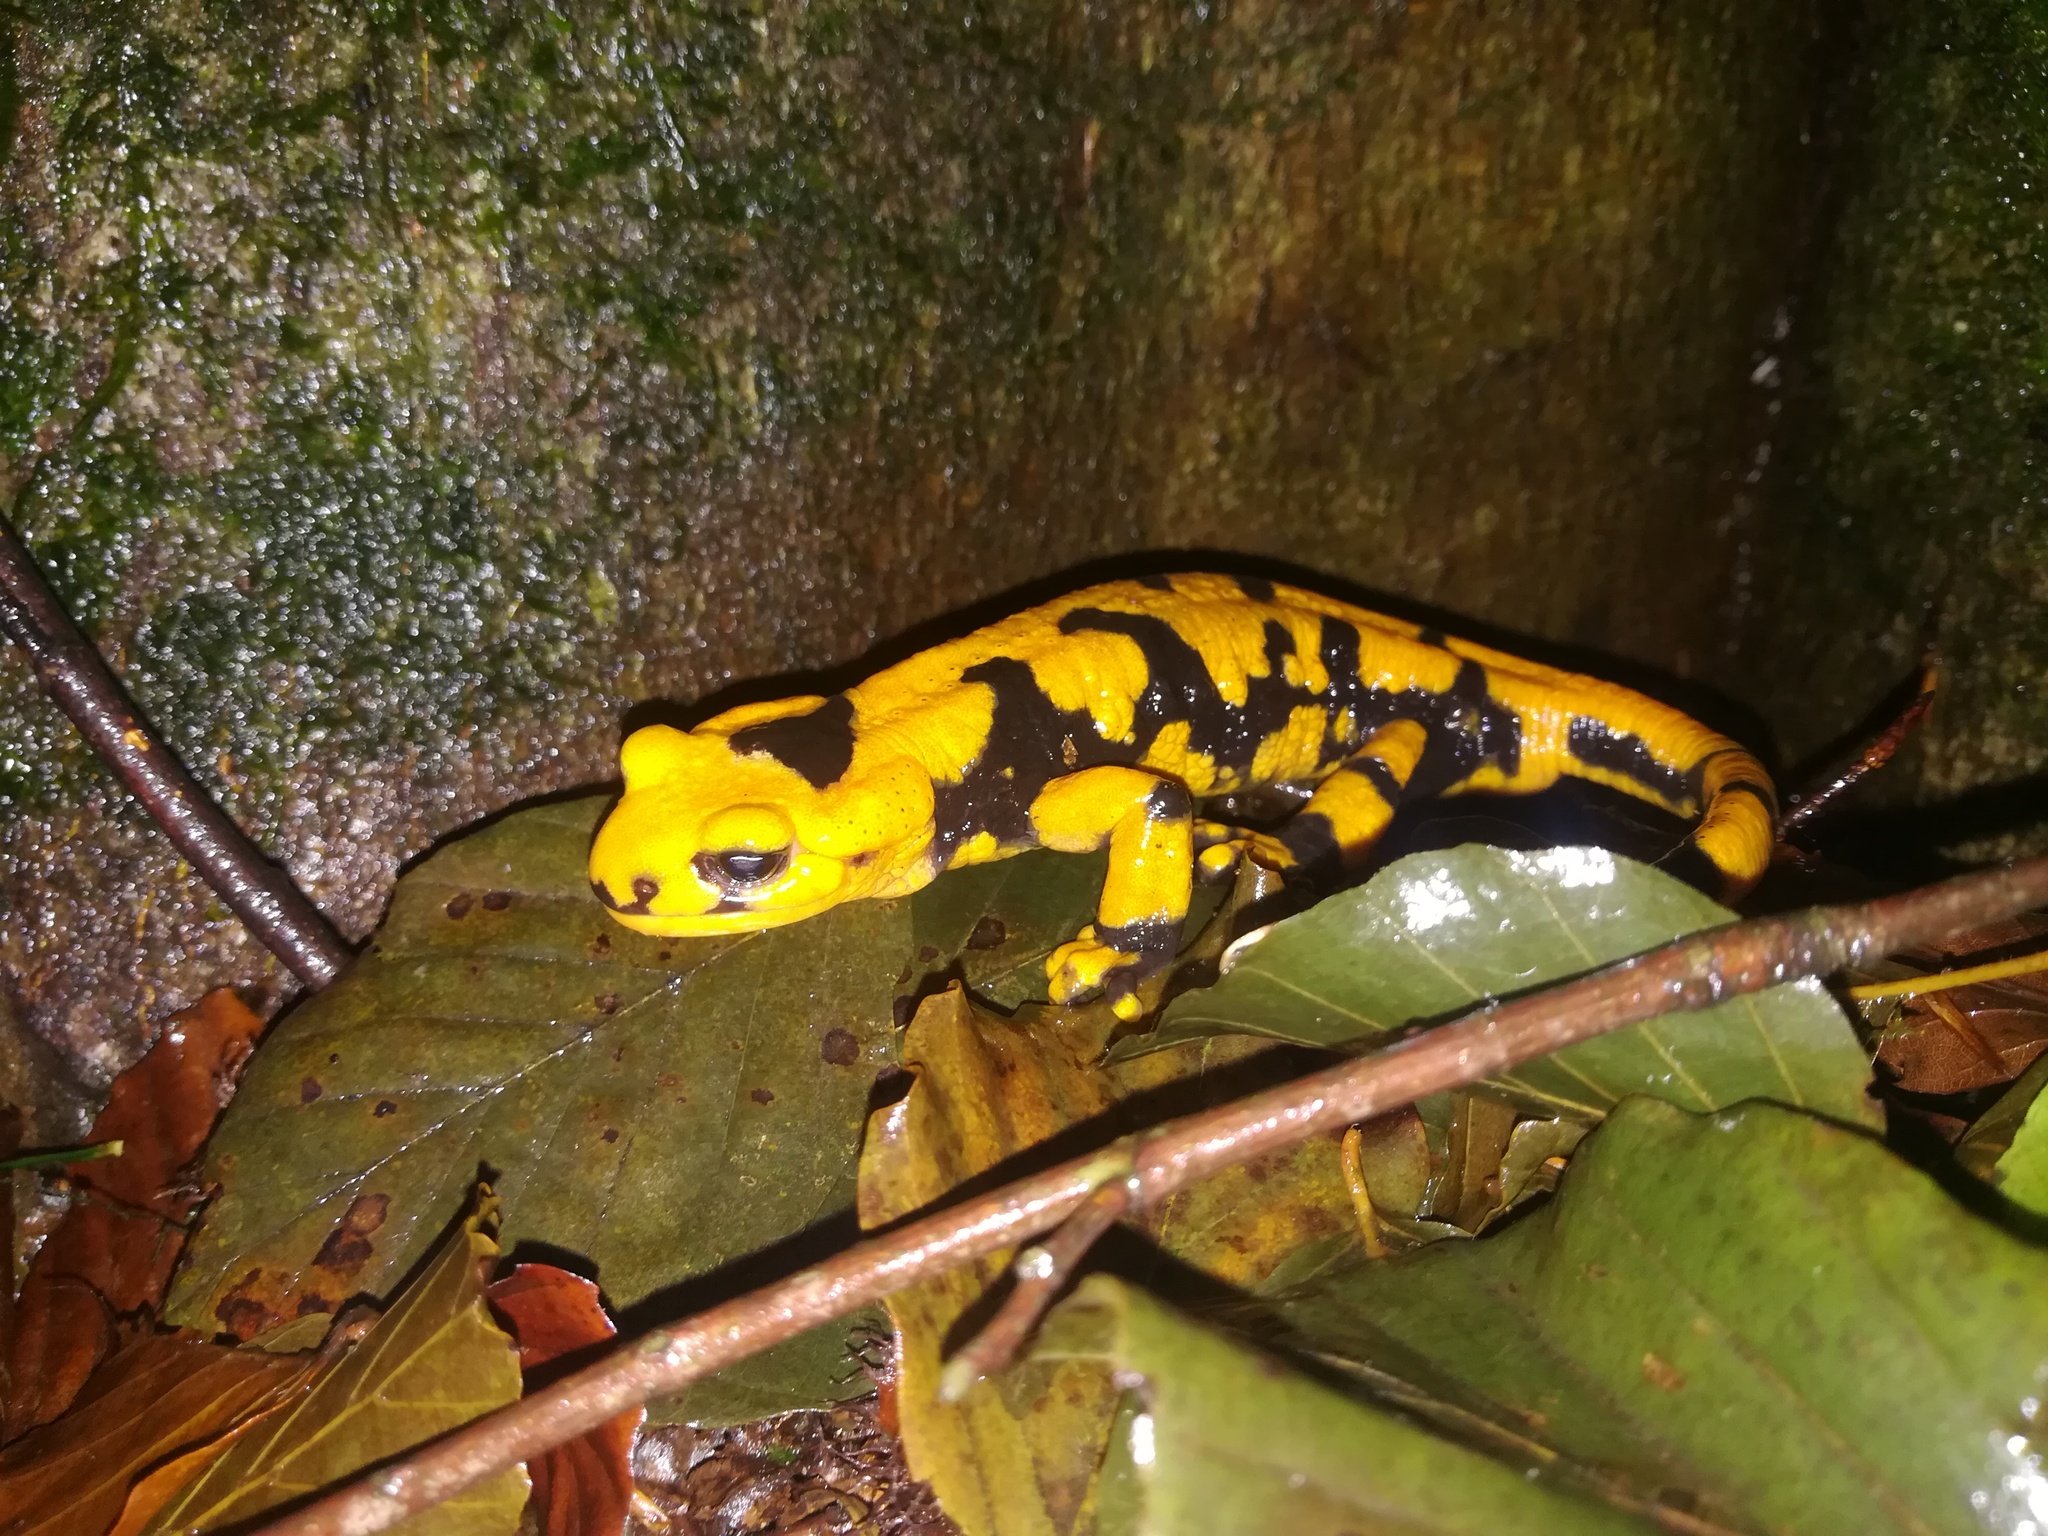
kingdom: Animalia
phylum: Chordata
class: Amphibia
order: Caudata
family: Salamandridae
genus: Salamandra
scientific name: Salamandra salamandra
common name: Fire salamander
